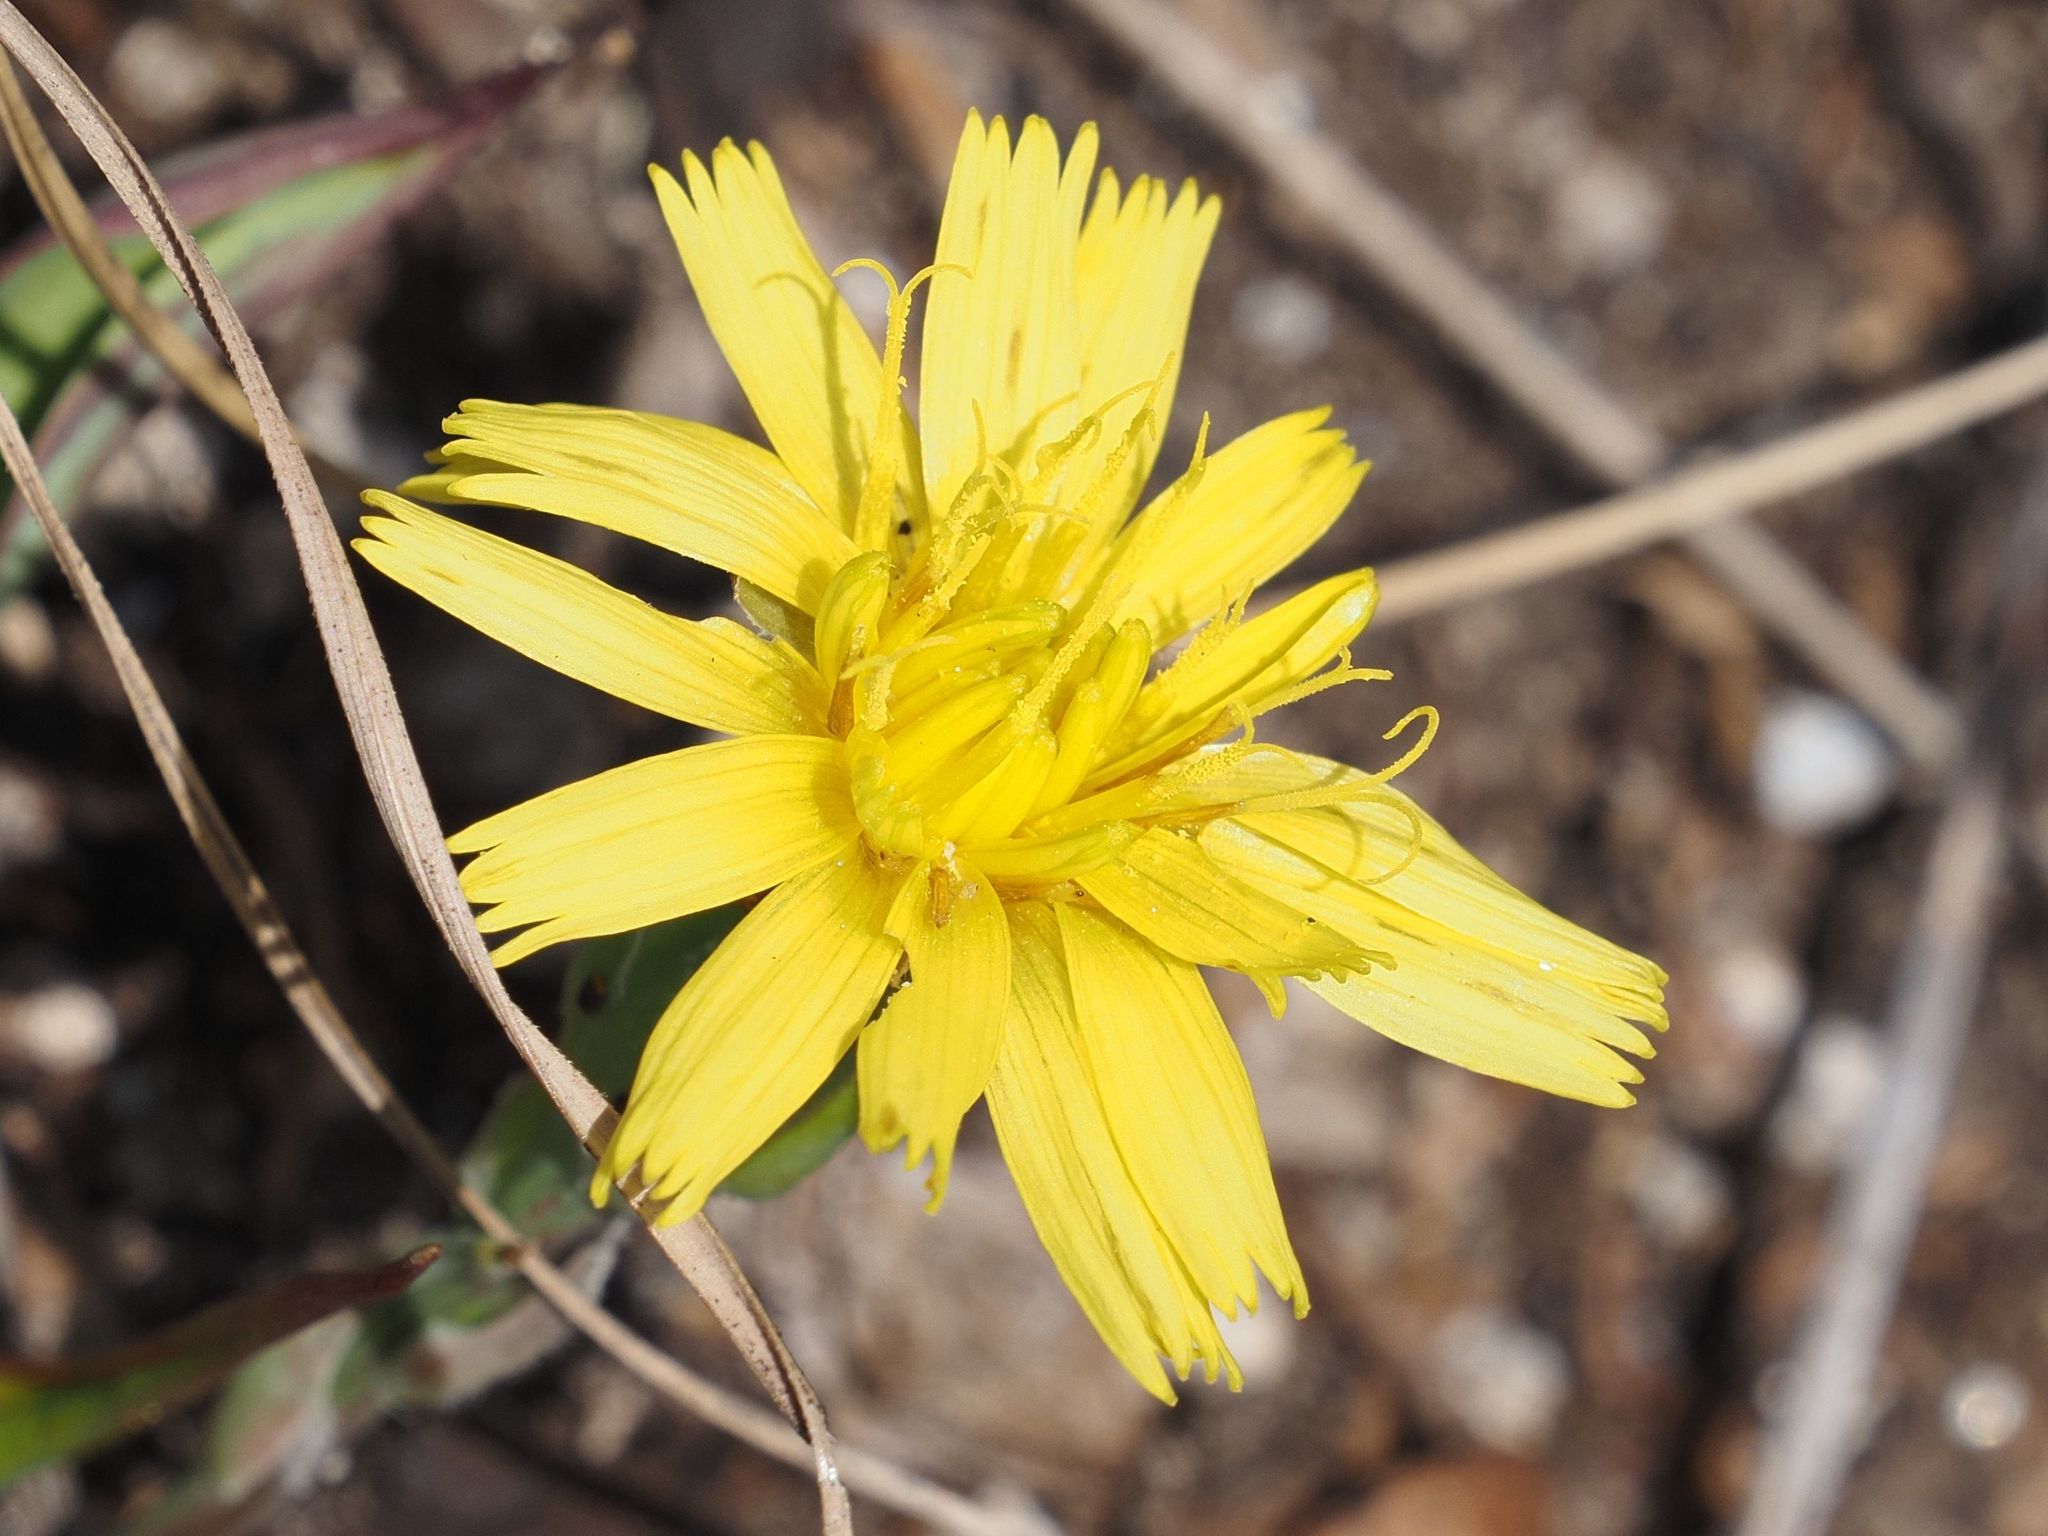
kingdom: Plantae
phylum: Tracheophyta
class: Magnoliopsida
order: Asterales
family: Asteraceae
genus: Takhtajaniantha
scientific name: Takhtajaniantha austriaca
